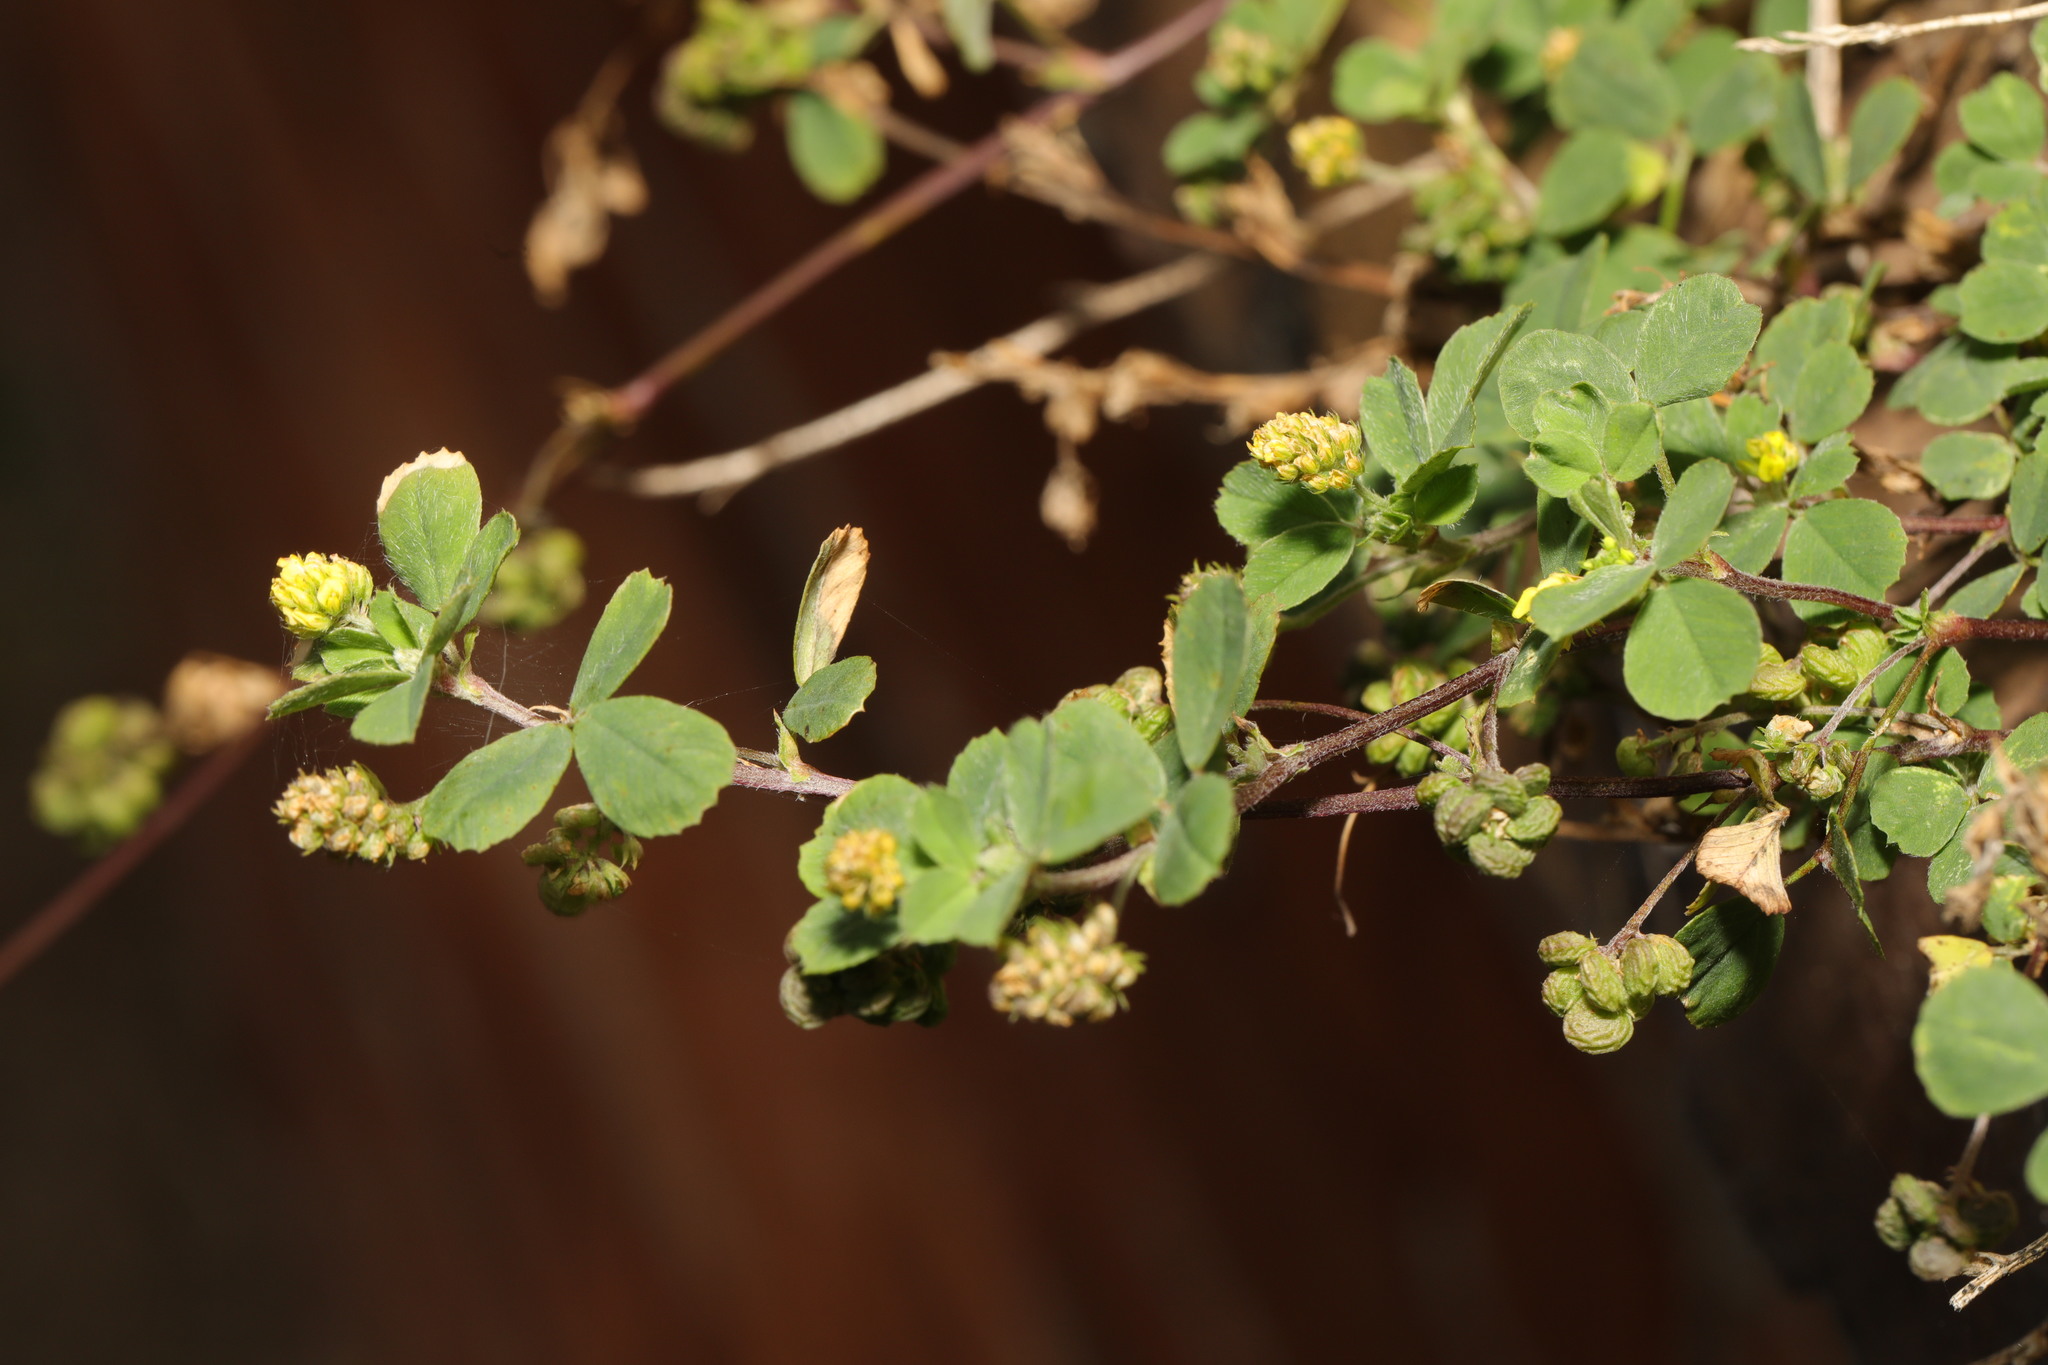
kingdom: Plantae
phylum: Tracheophyta
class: Magnoliopsida
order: Fabales
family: Fabaceae
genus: Medicago
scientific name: Medicago lupulina
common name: Black medick
